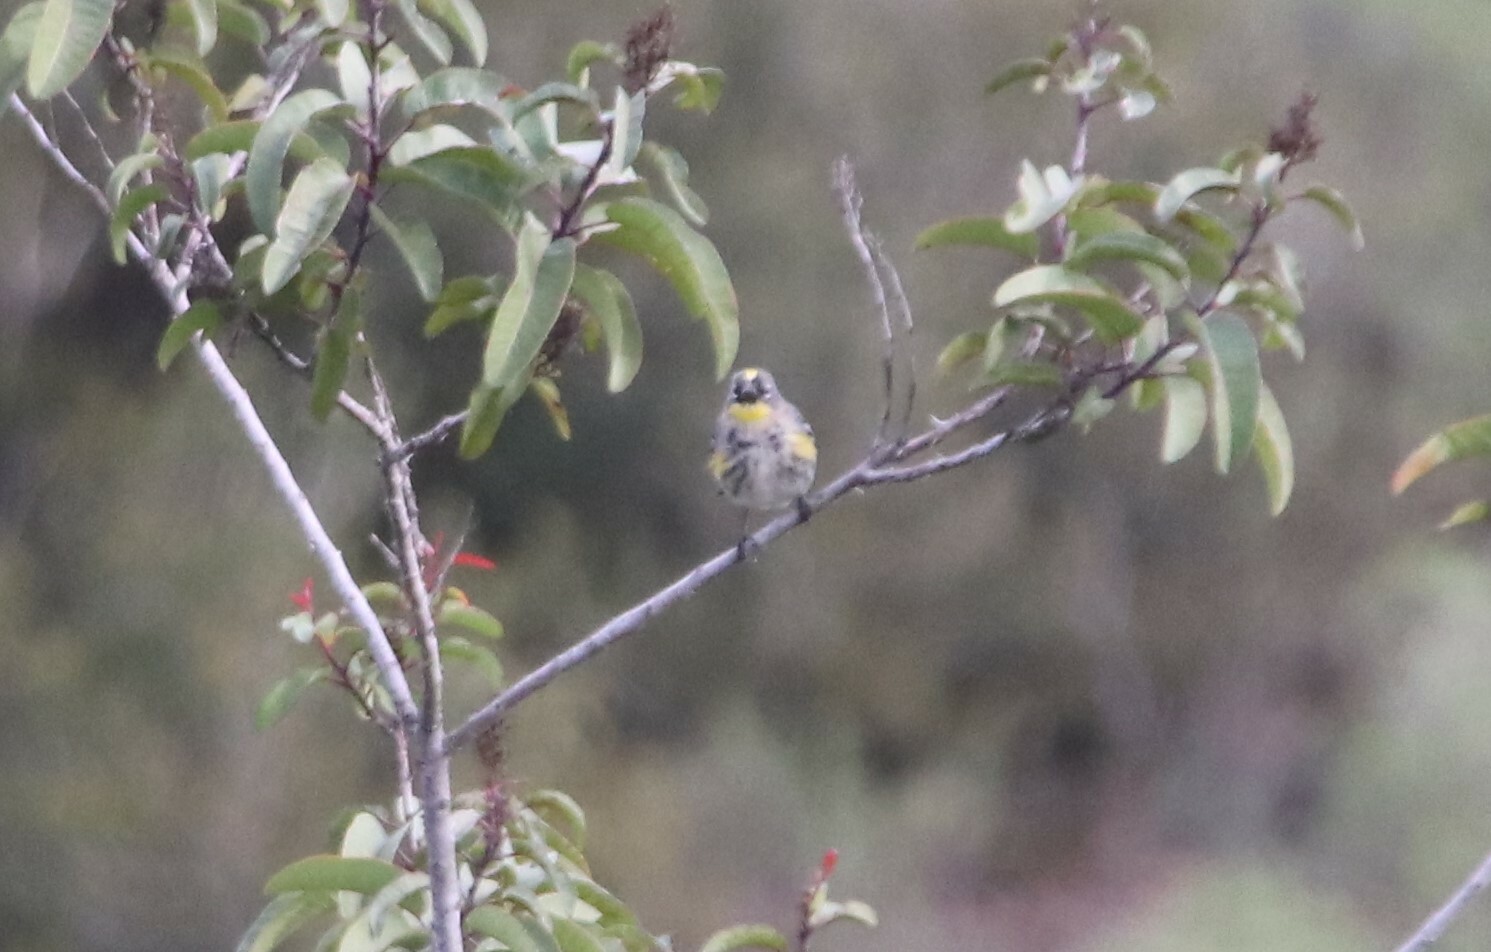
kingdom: Animalia
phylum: Chordata
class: Aves
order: Passeriformes
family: Parulidae
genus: Setophaga
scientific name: Setophaga coronata
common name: Myrtle warbler
